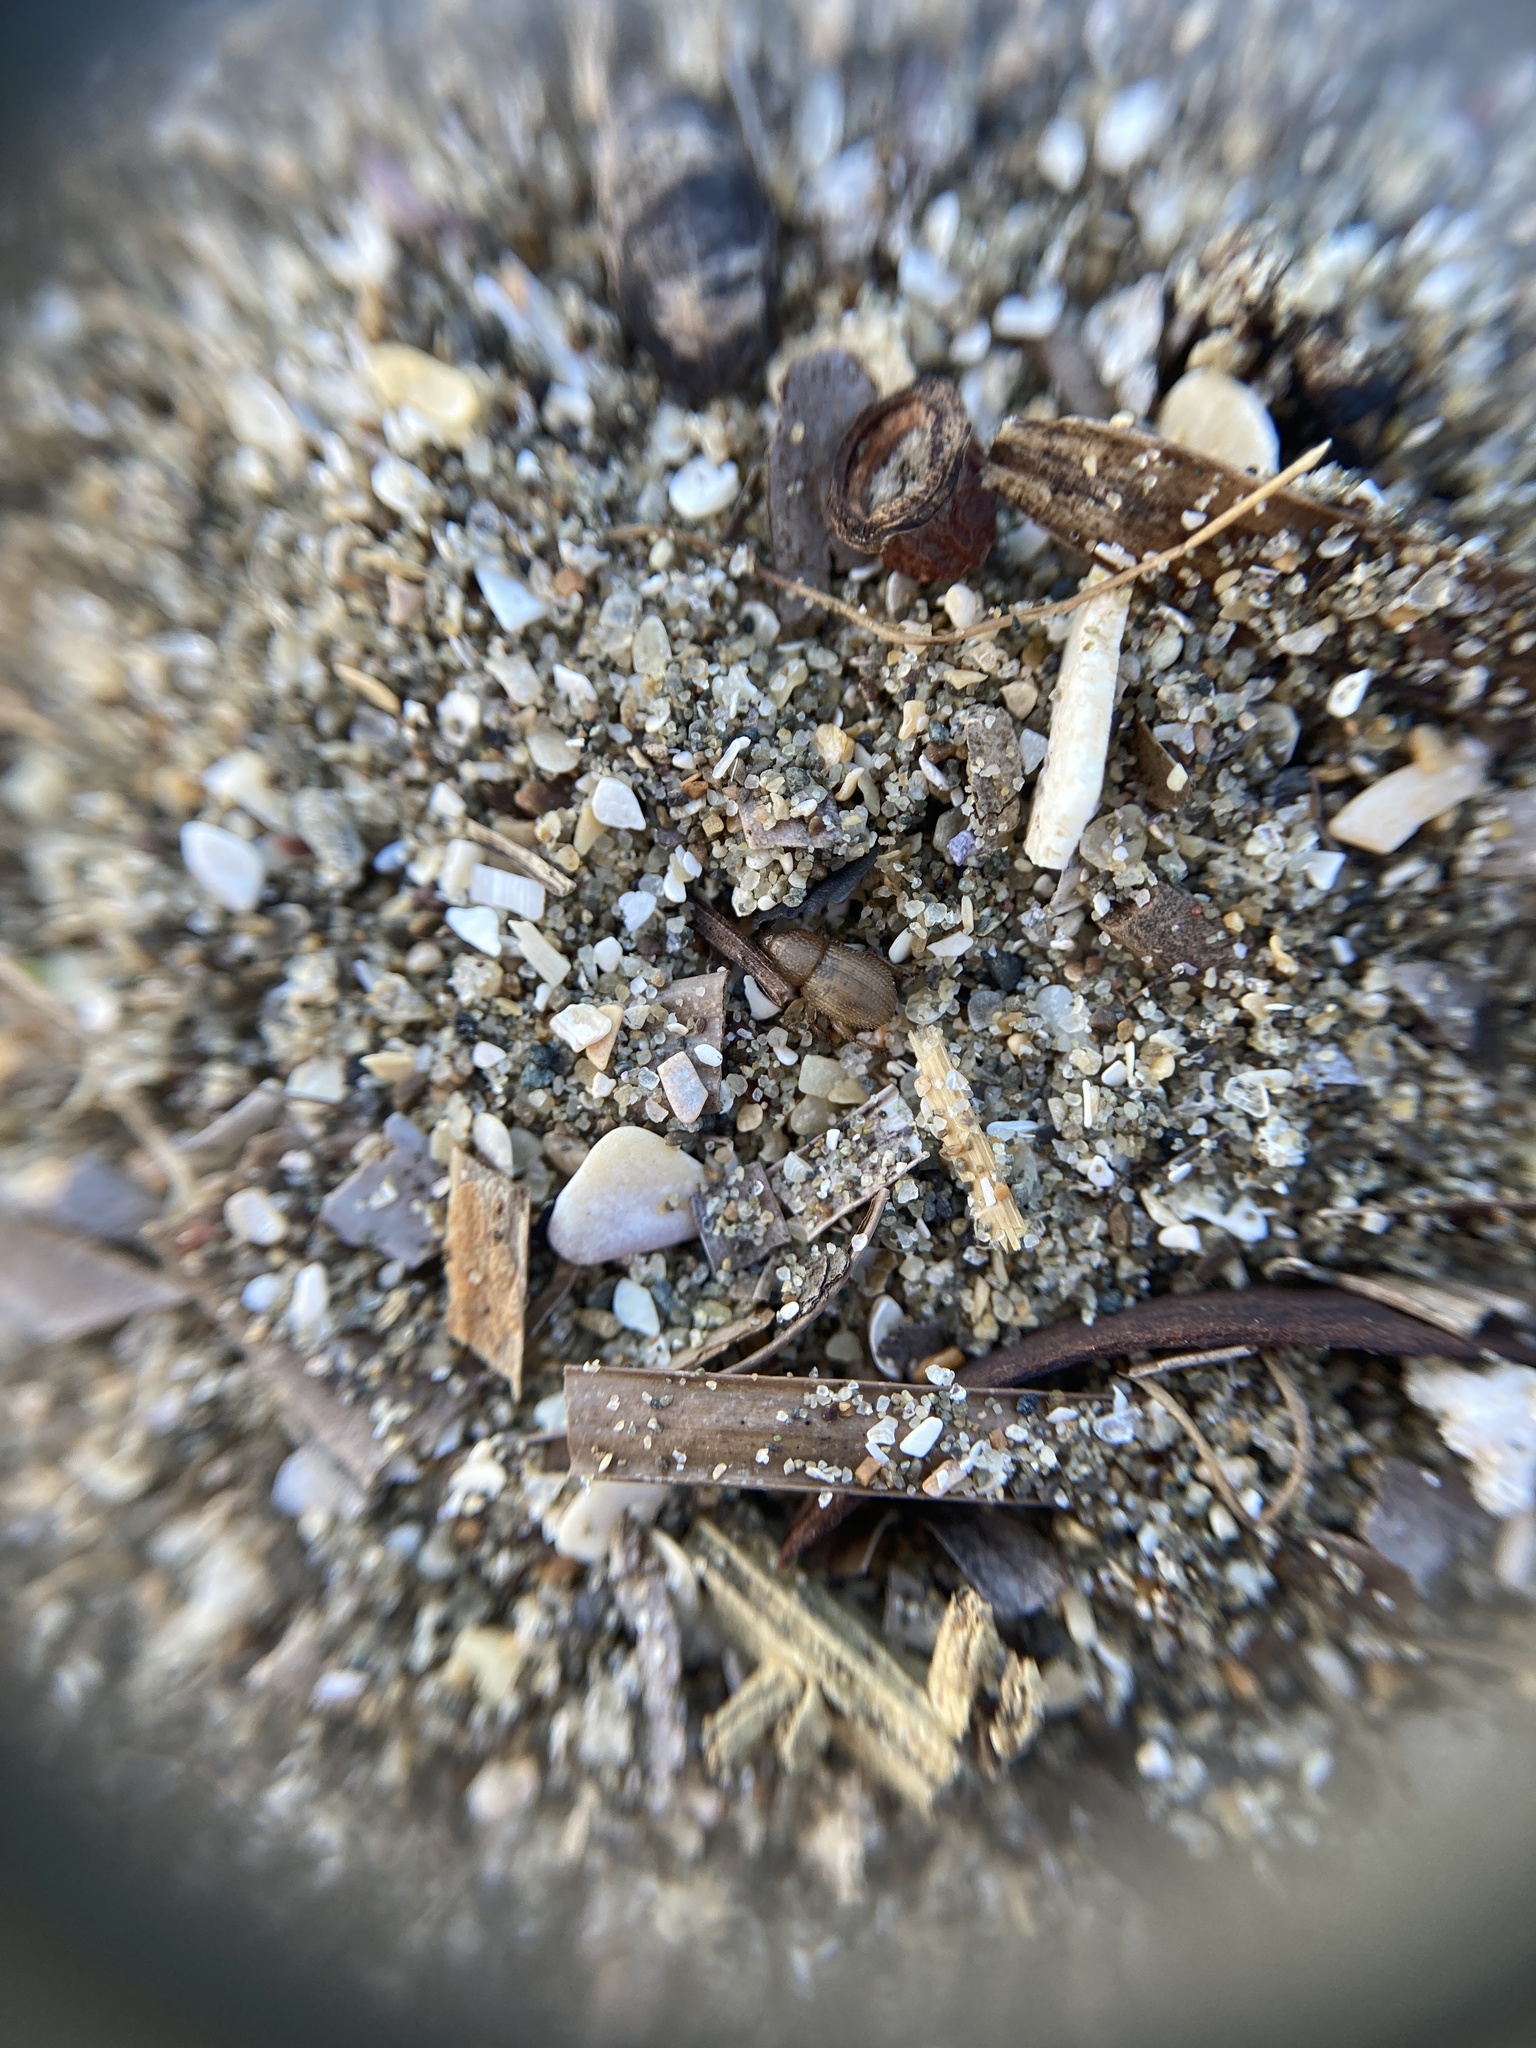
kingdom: Animalia
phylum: Arthropoda
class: Insecta
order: Coleoptera
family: Curculionidae
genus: Aphela
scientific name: Aphela algarum
